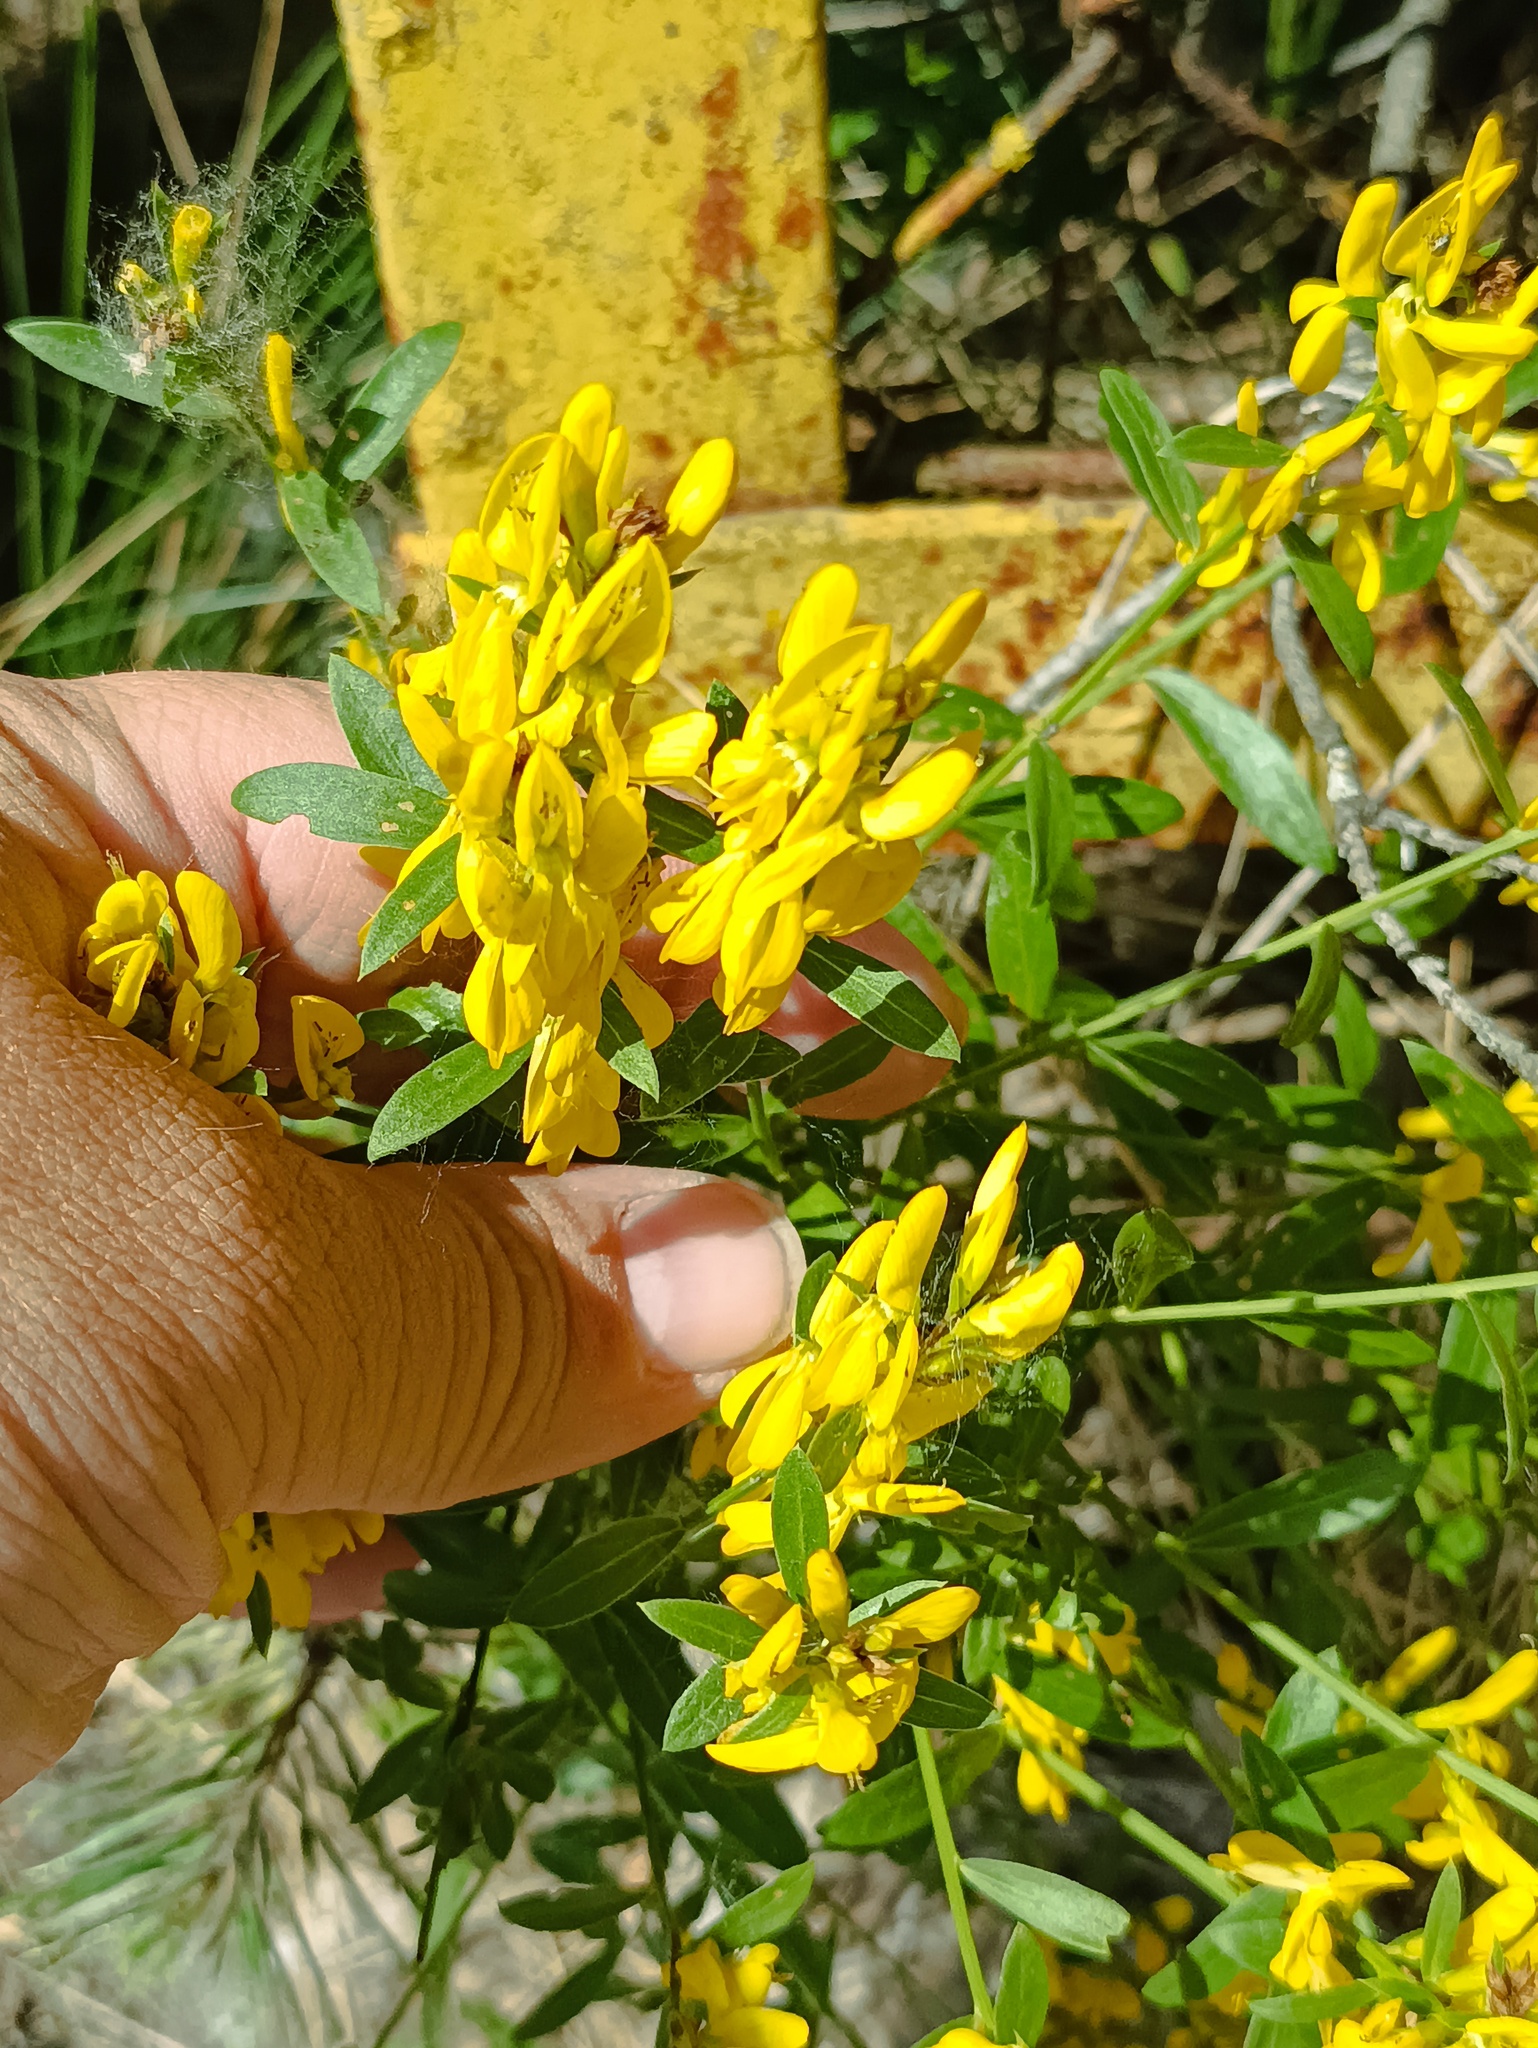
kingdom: Plantae
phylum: Tracheophyta
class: Magnoliopsida
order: Fabales
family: Fabaceae
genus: Genista
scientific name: Genista tinctoria
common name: Dyer's greenweed
